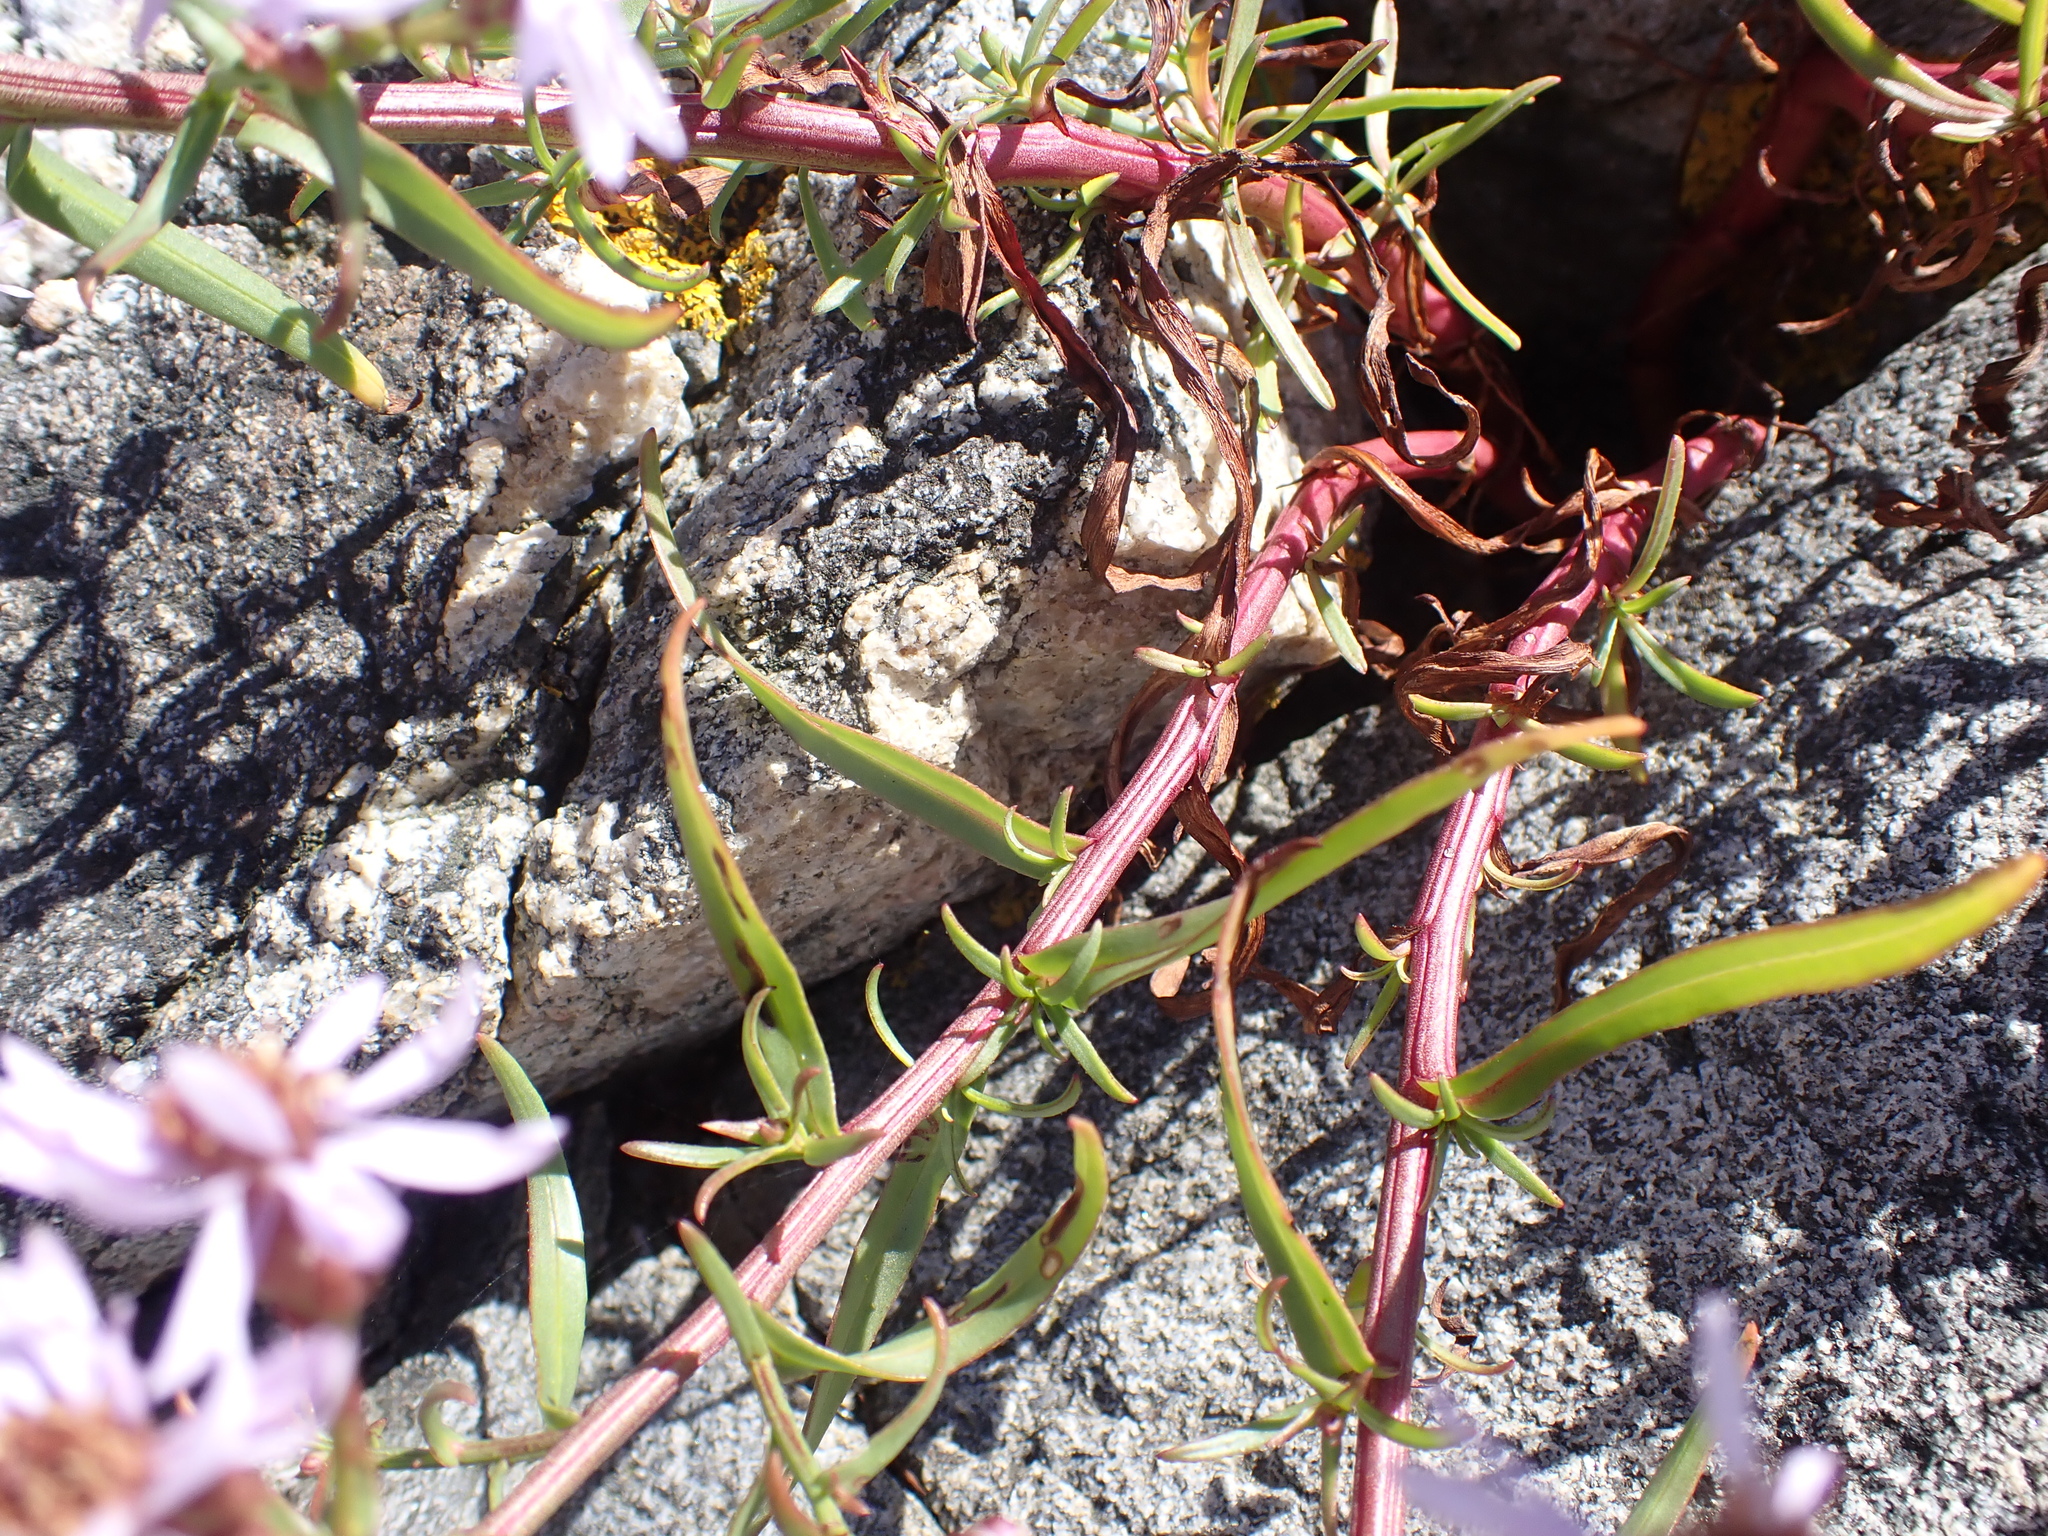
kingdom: Plantae
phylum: Tracheophyta
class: Magnoliopsida
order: Asterales
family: Asteraceae
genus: Tripolium
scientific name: Tripolium pannonicum
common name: Sea aster
